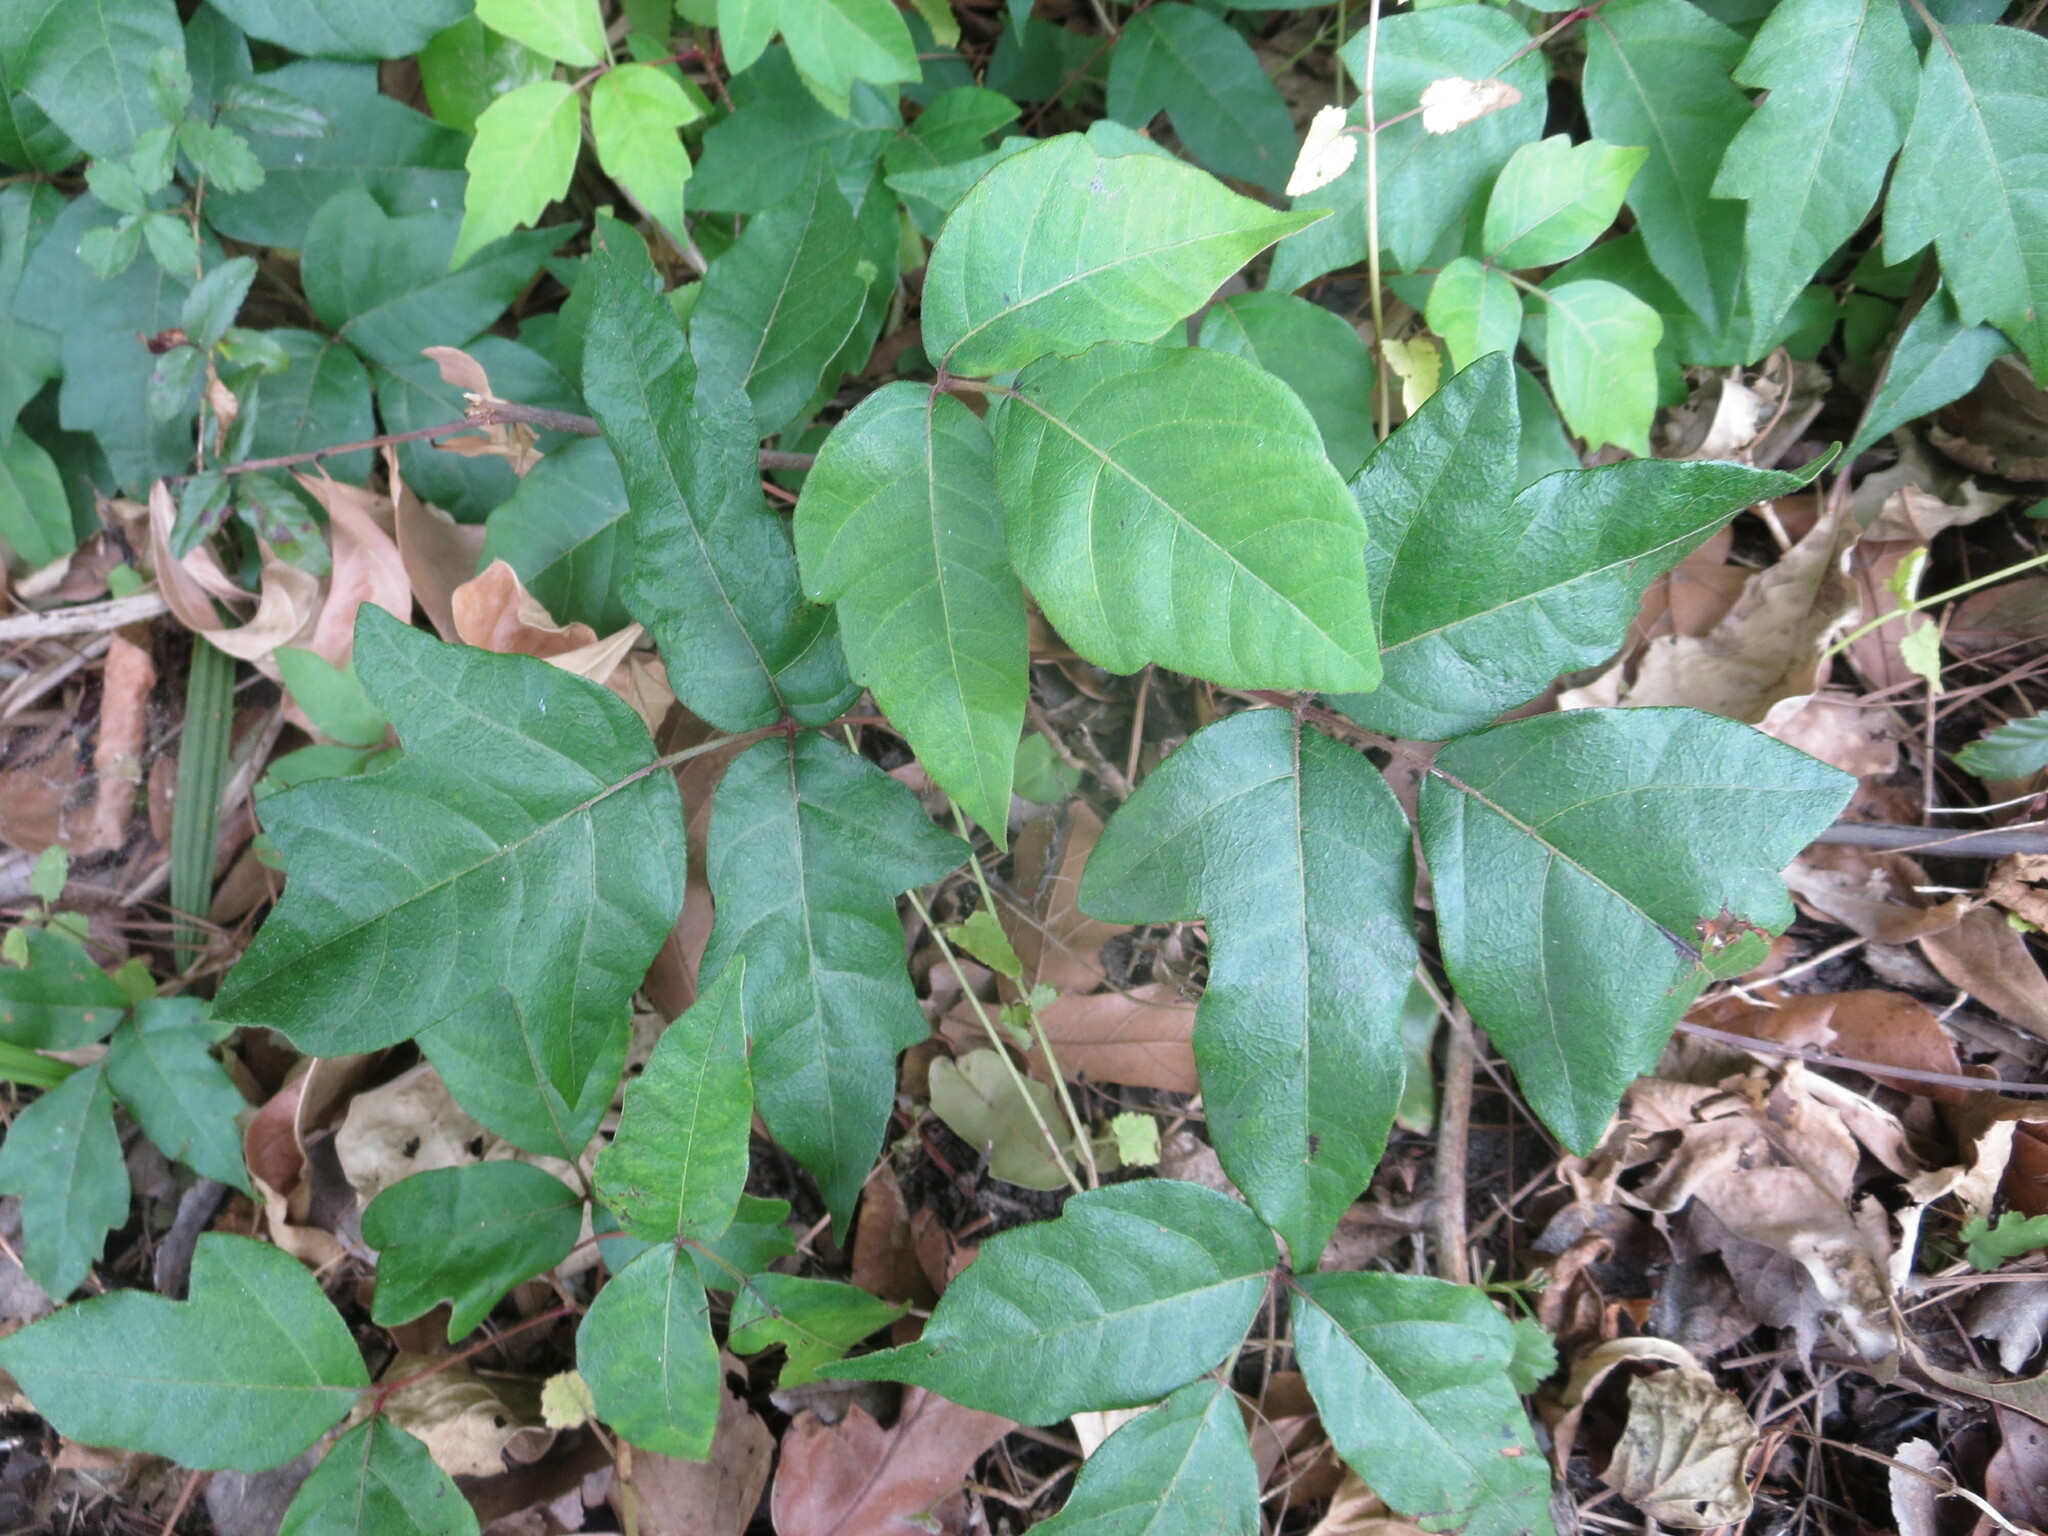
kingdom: Plantae
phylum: Tracheophyta
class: Magnoliopsida
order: Sapindales
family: Anacardiaceae
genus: Toxicodendron
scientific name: Toxicodendron radicans
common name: Poison ivy
